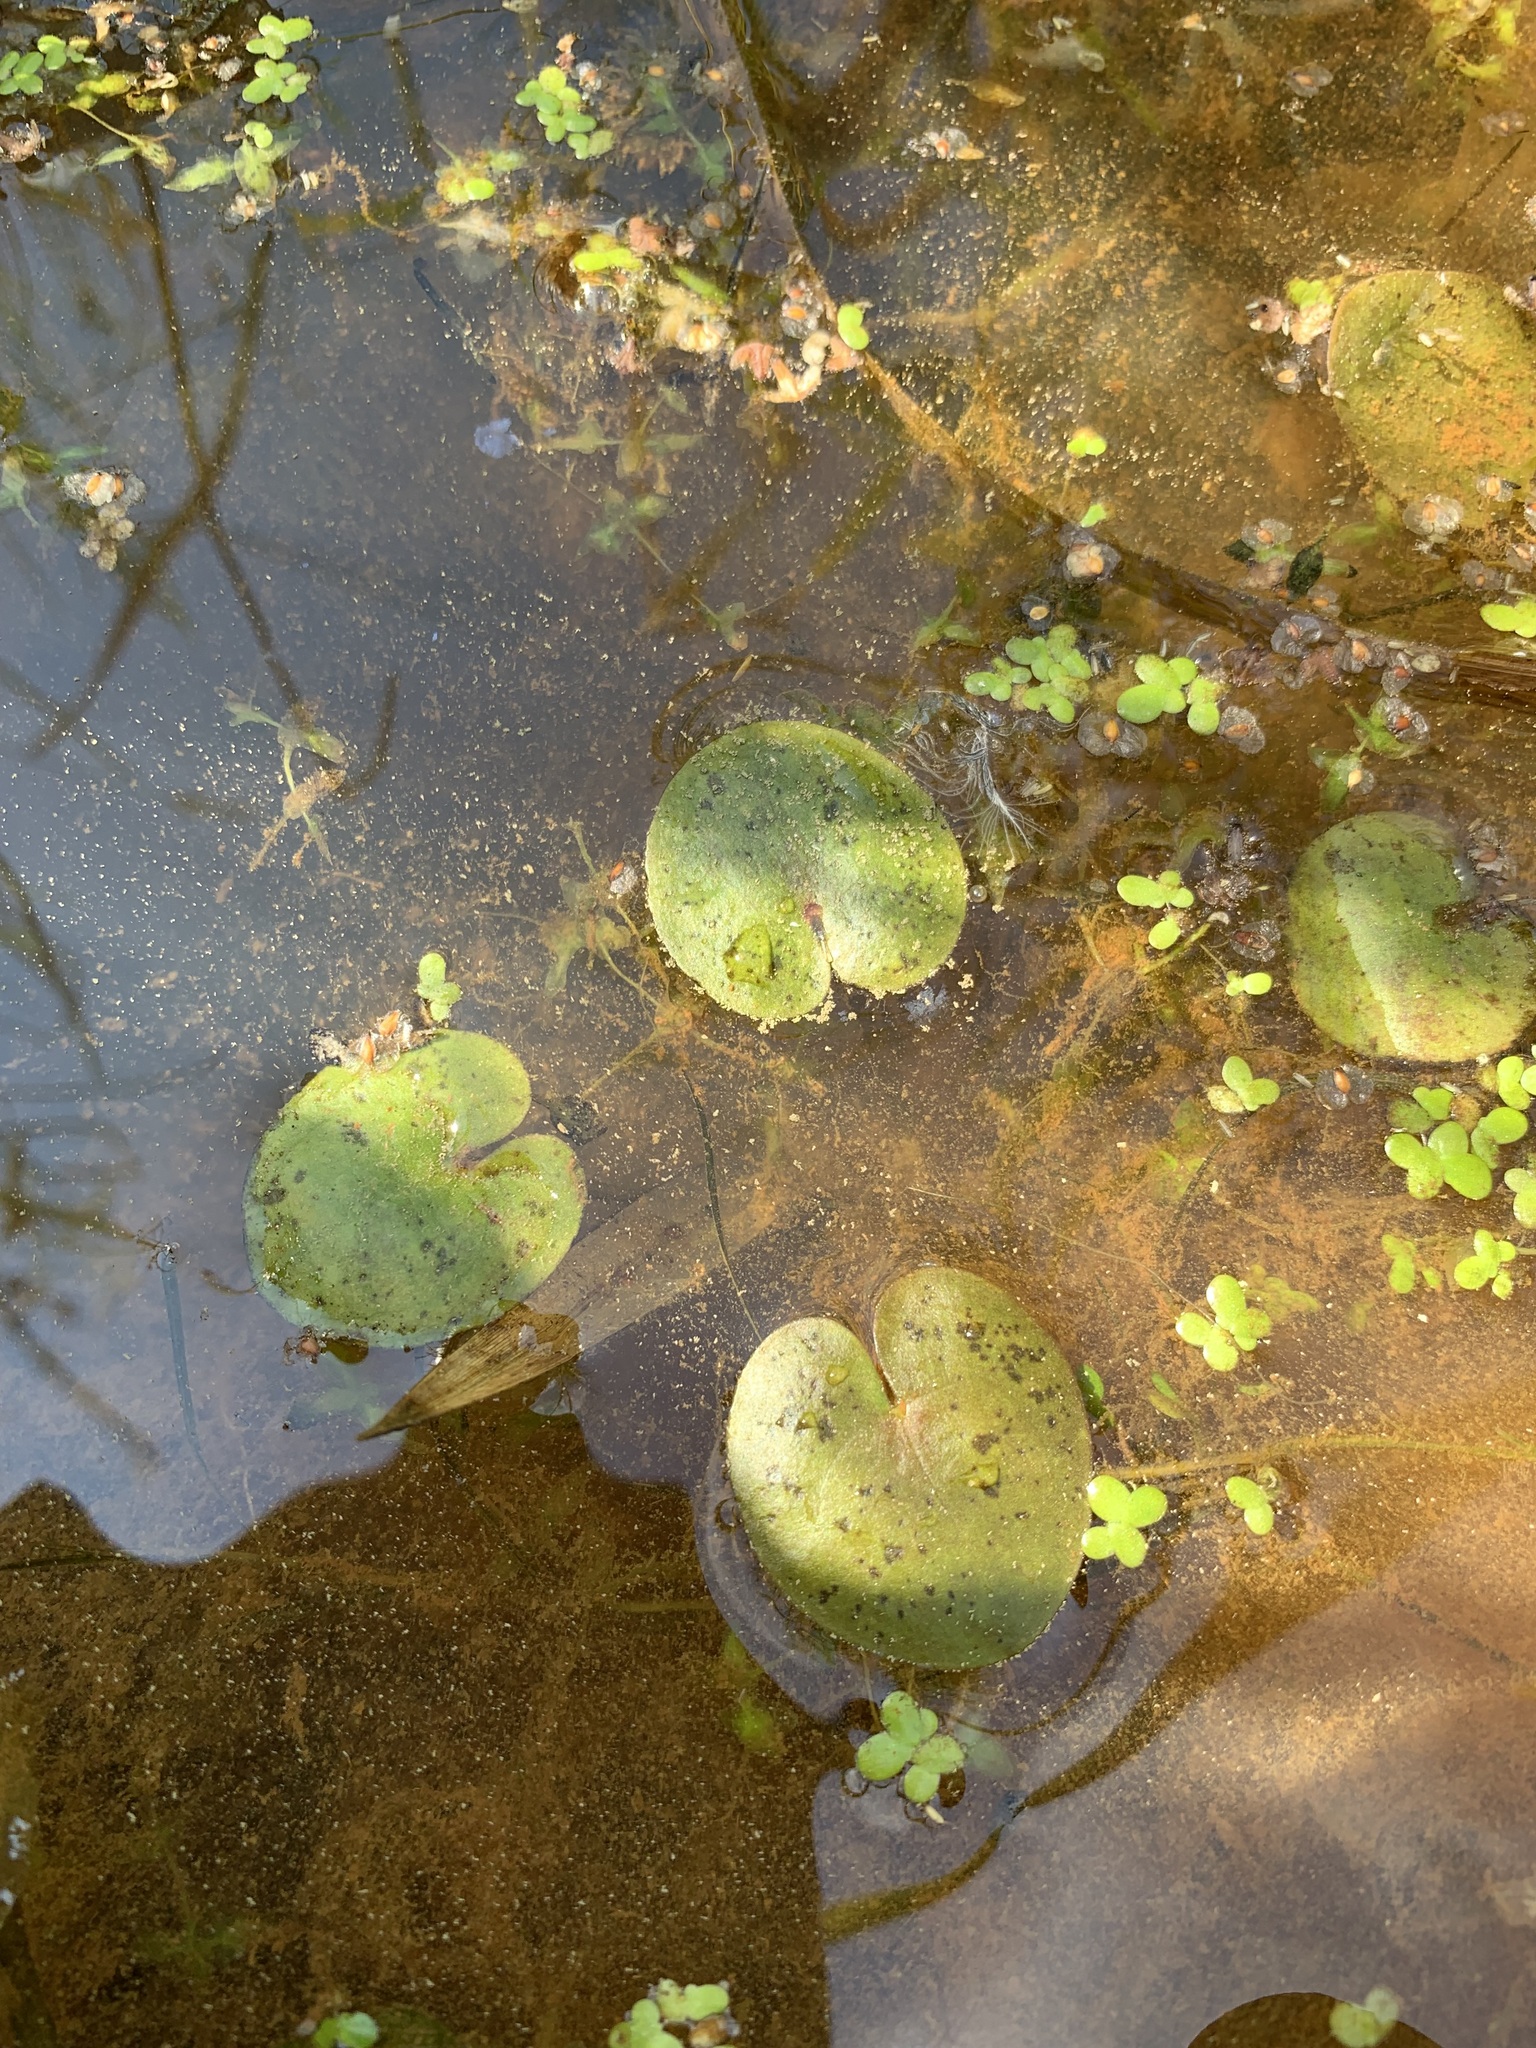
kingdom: Plantae
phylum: Tracheophyta
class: Liliopsida
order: Alismatales
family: Hydrocharitaceae
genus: Hydrocharis
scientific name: Hydrocharis morsus-ranae
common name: Frogbit
